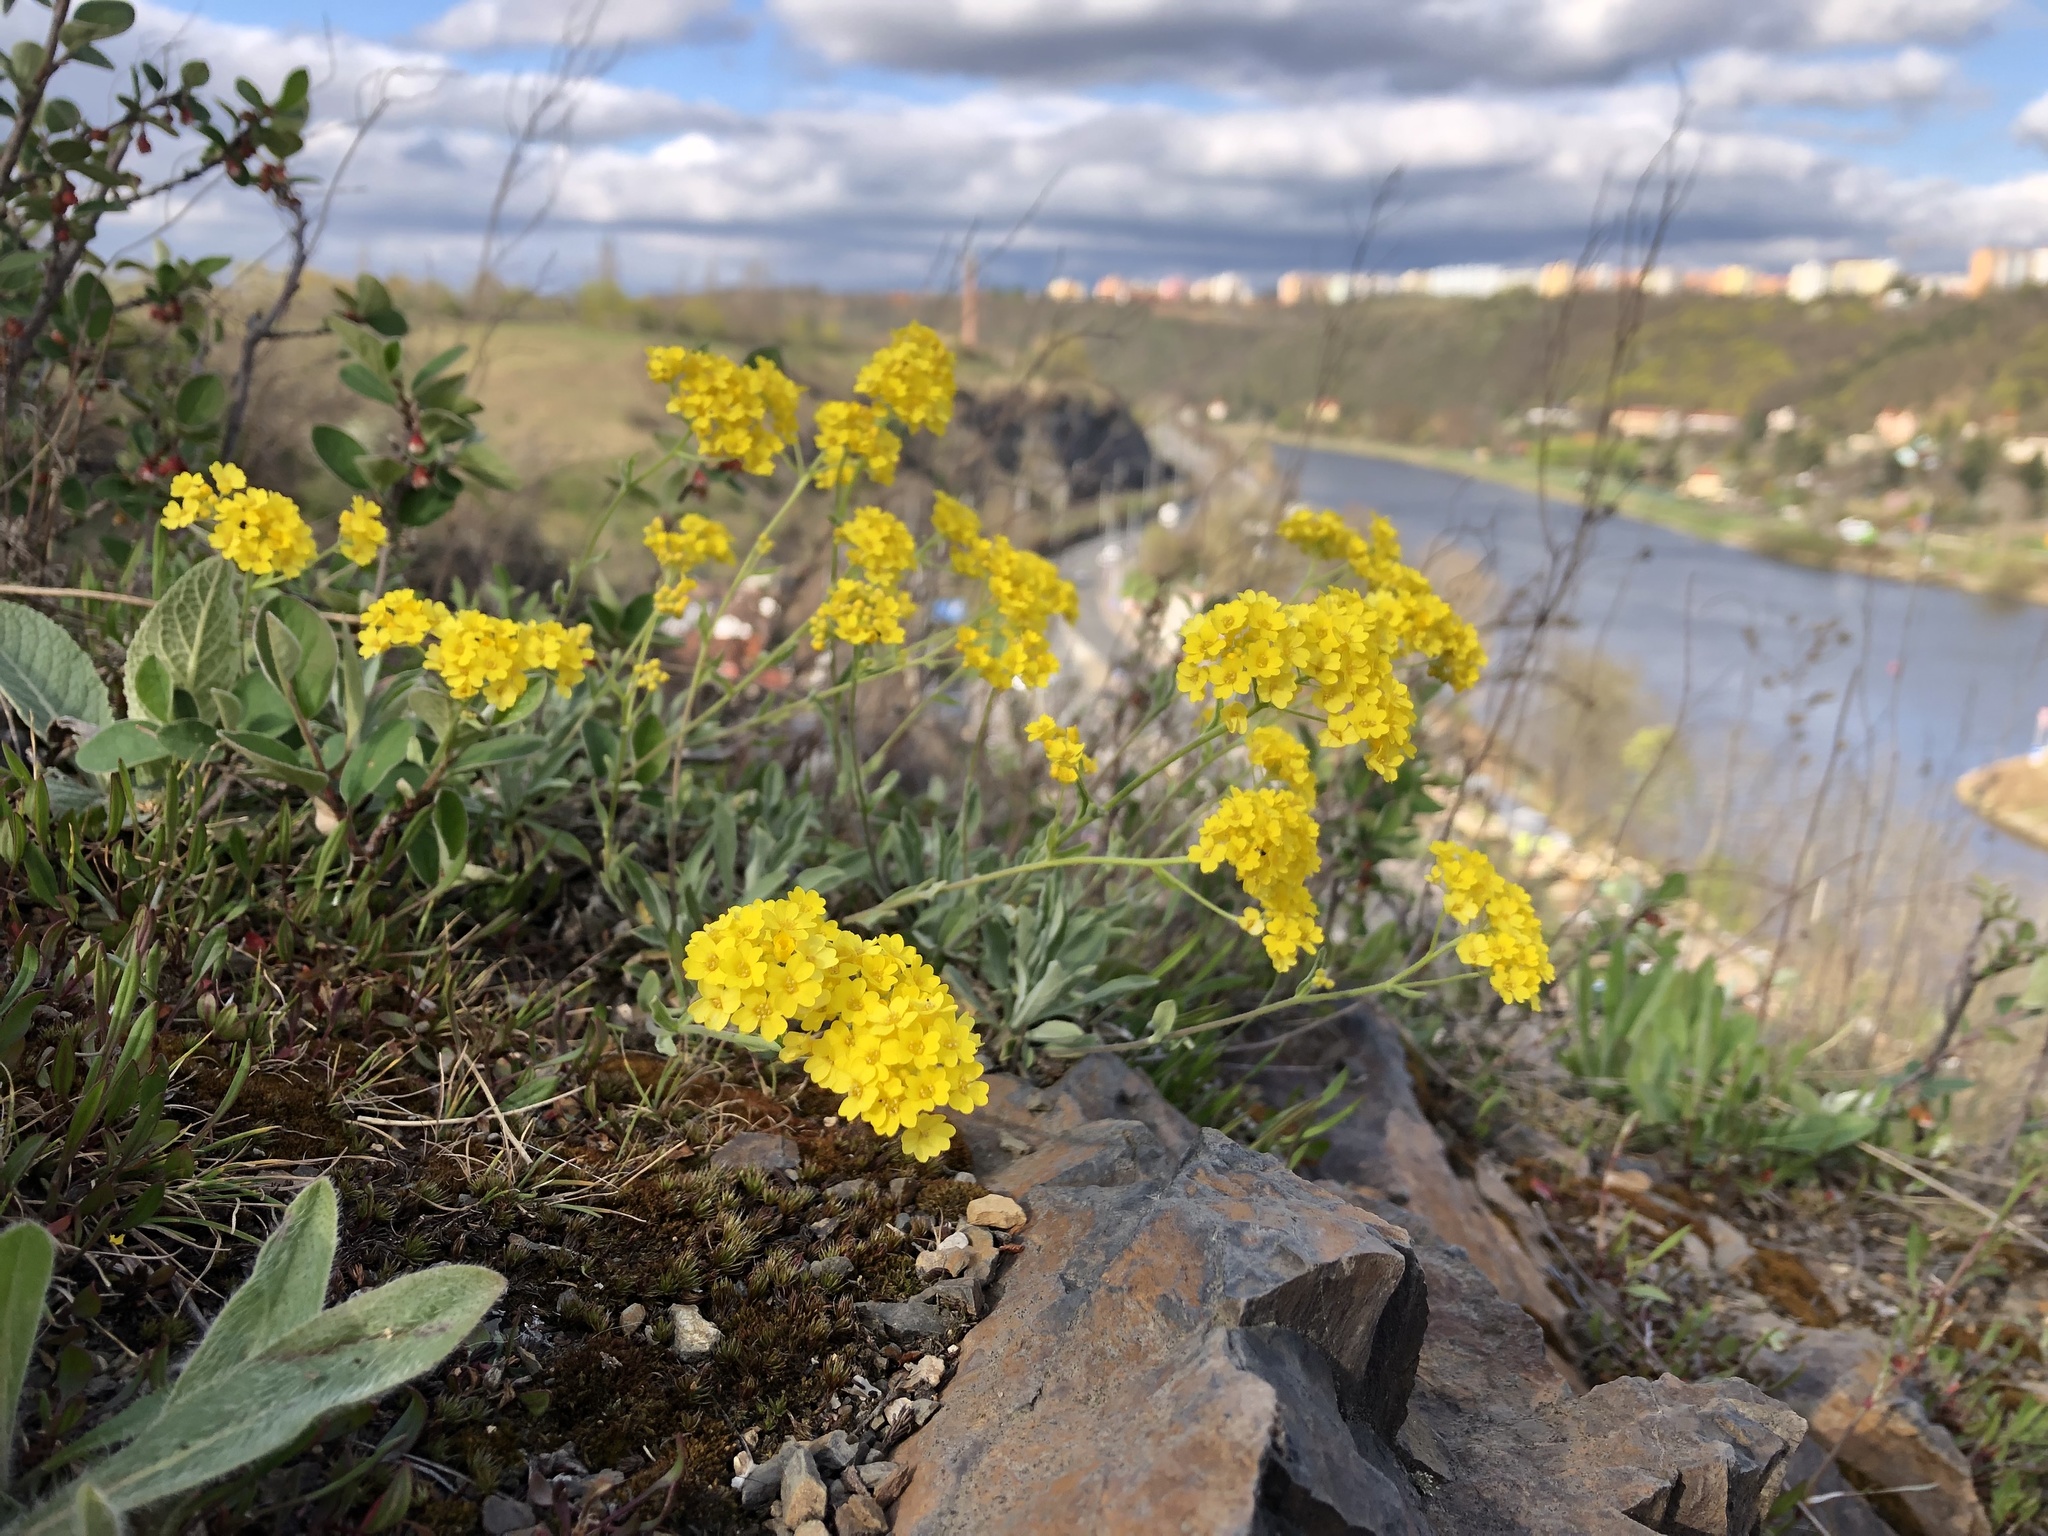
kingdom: Plantae
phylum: Tracheophyta
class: Magnoliopsida
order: Brassicales
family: Brassicaceae
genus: Aurinia
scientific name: Aurinia saxatilis
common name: Golden-tuft alyssum
